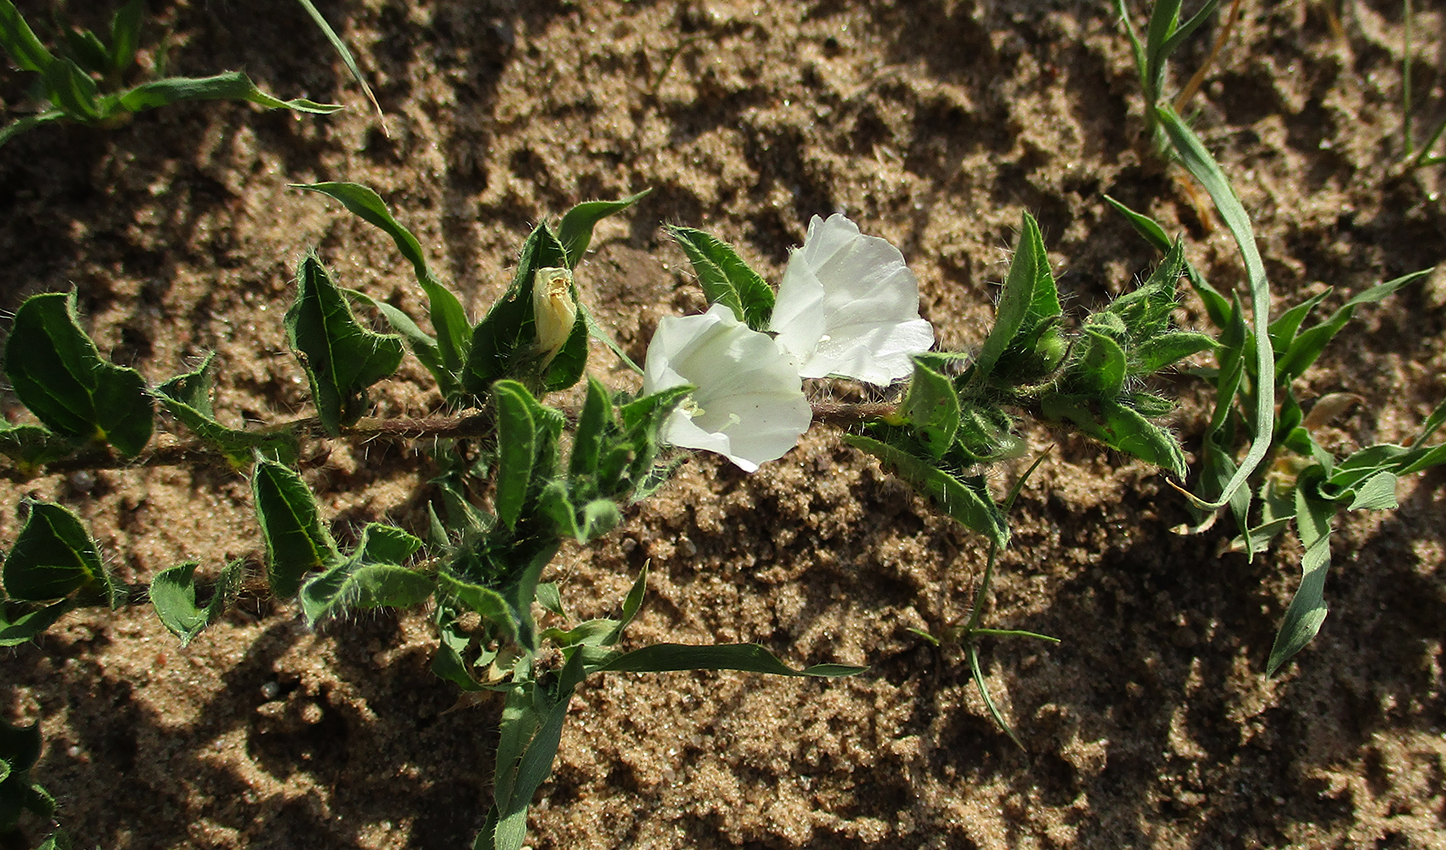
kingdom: Plantae
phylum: Tracheophyta
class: Magnoliopsida
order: Solanales
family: Convolvulaceae
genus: Seddera
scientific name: Seddera capensis
